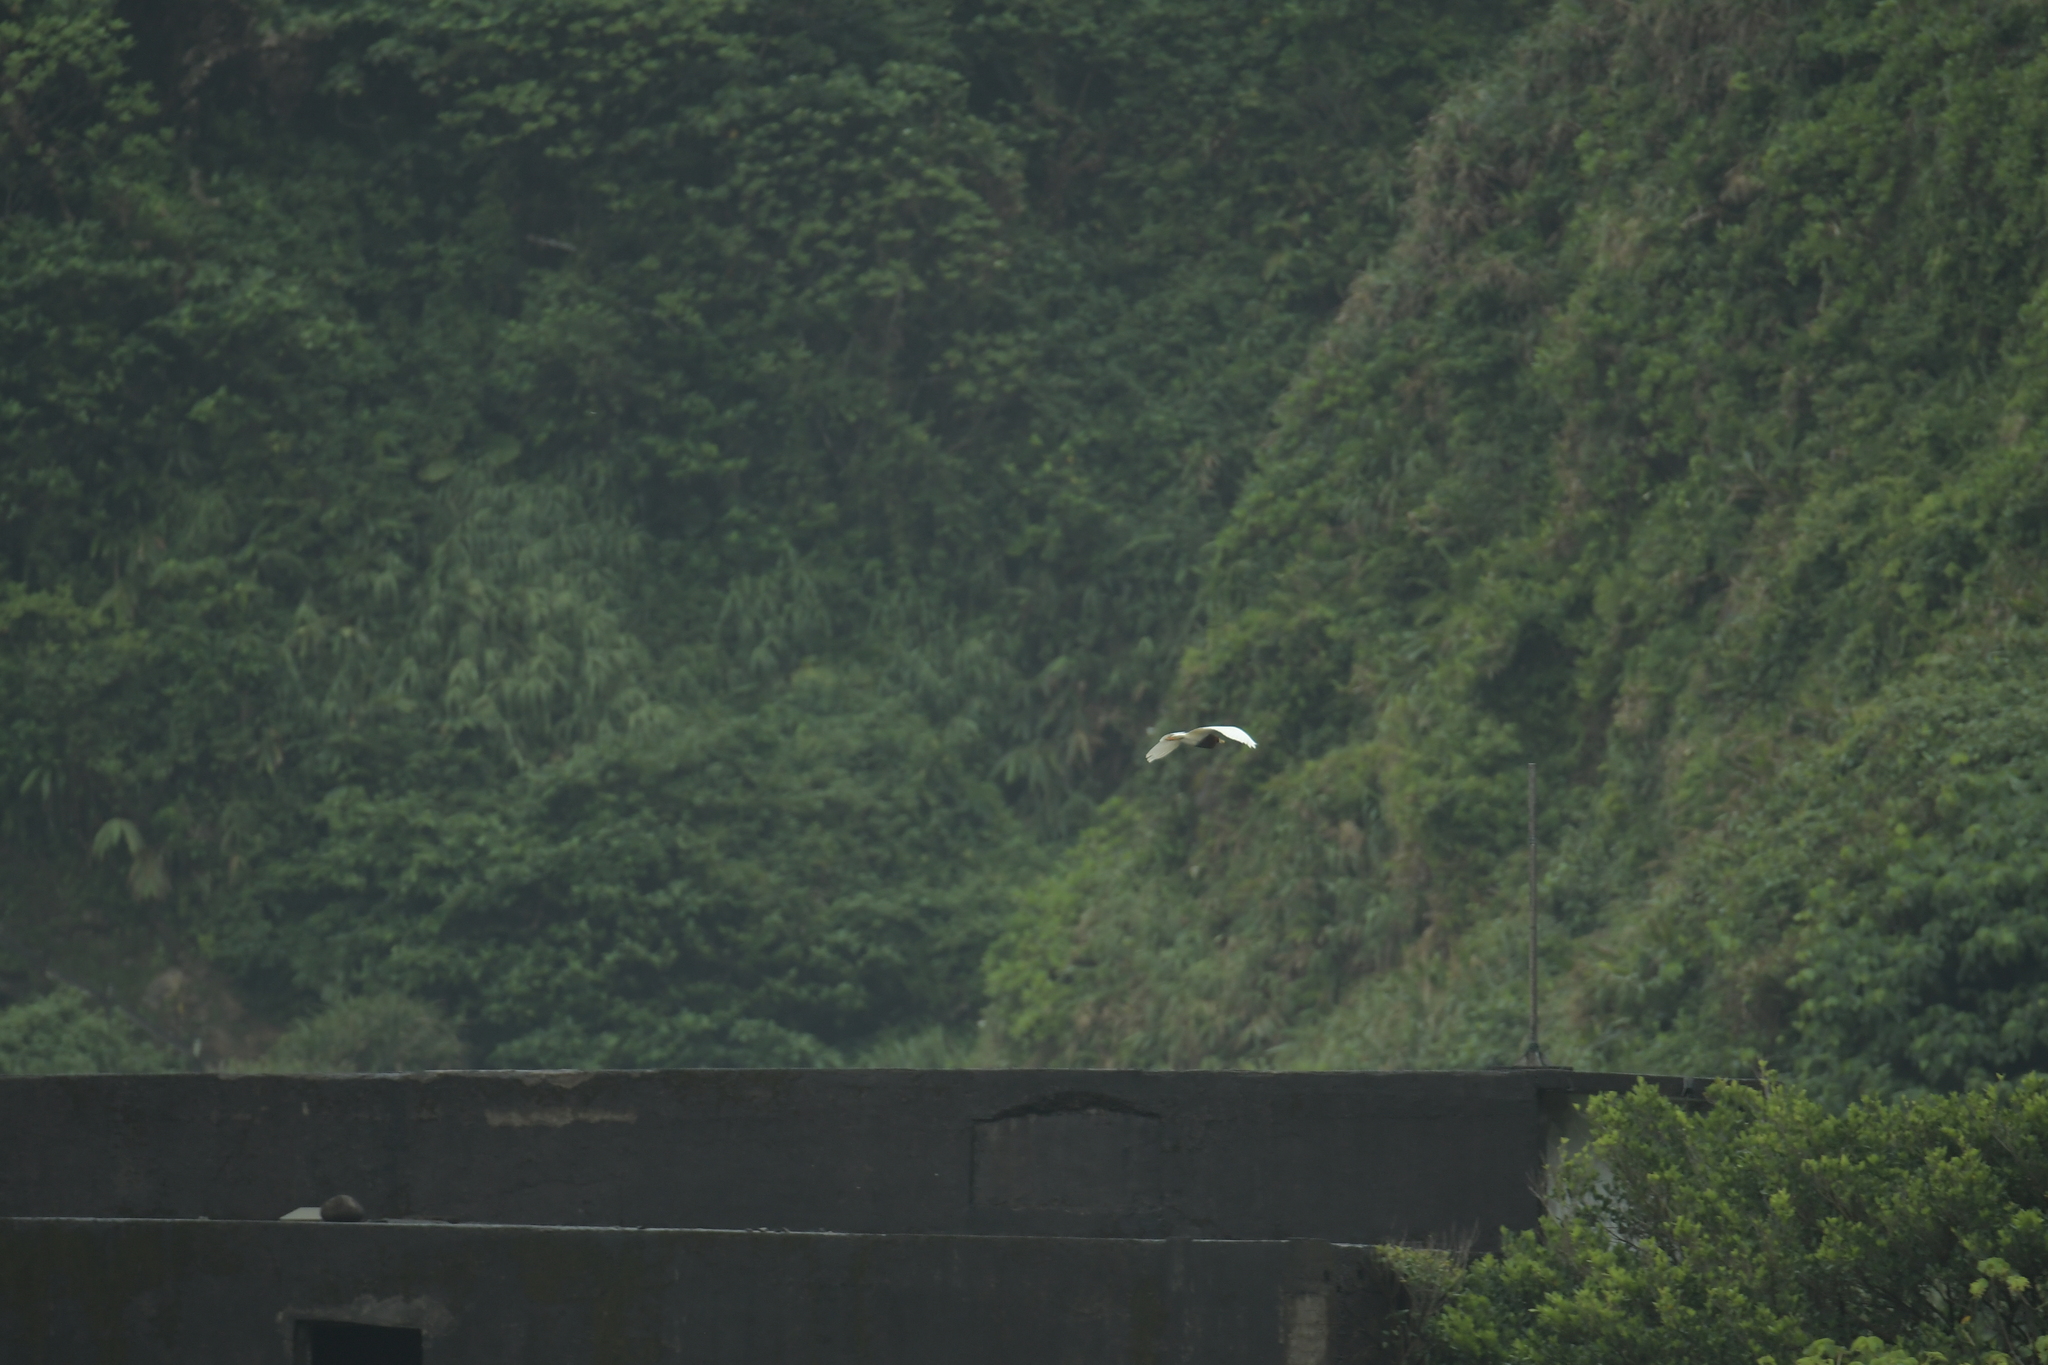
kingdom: Animalia
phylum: Chordata
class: Aves
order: Pelecaniformes
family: Ardeidae
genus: Ardeola
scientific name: Ardeola bacchus
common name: Chinese pond heron
